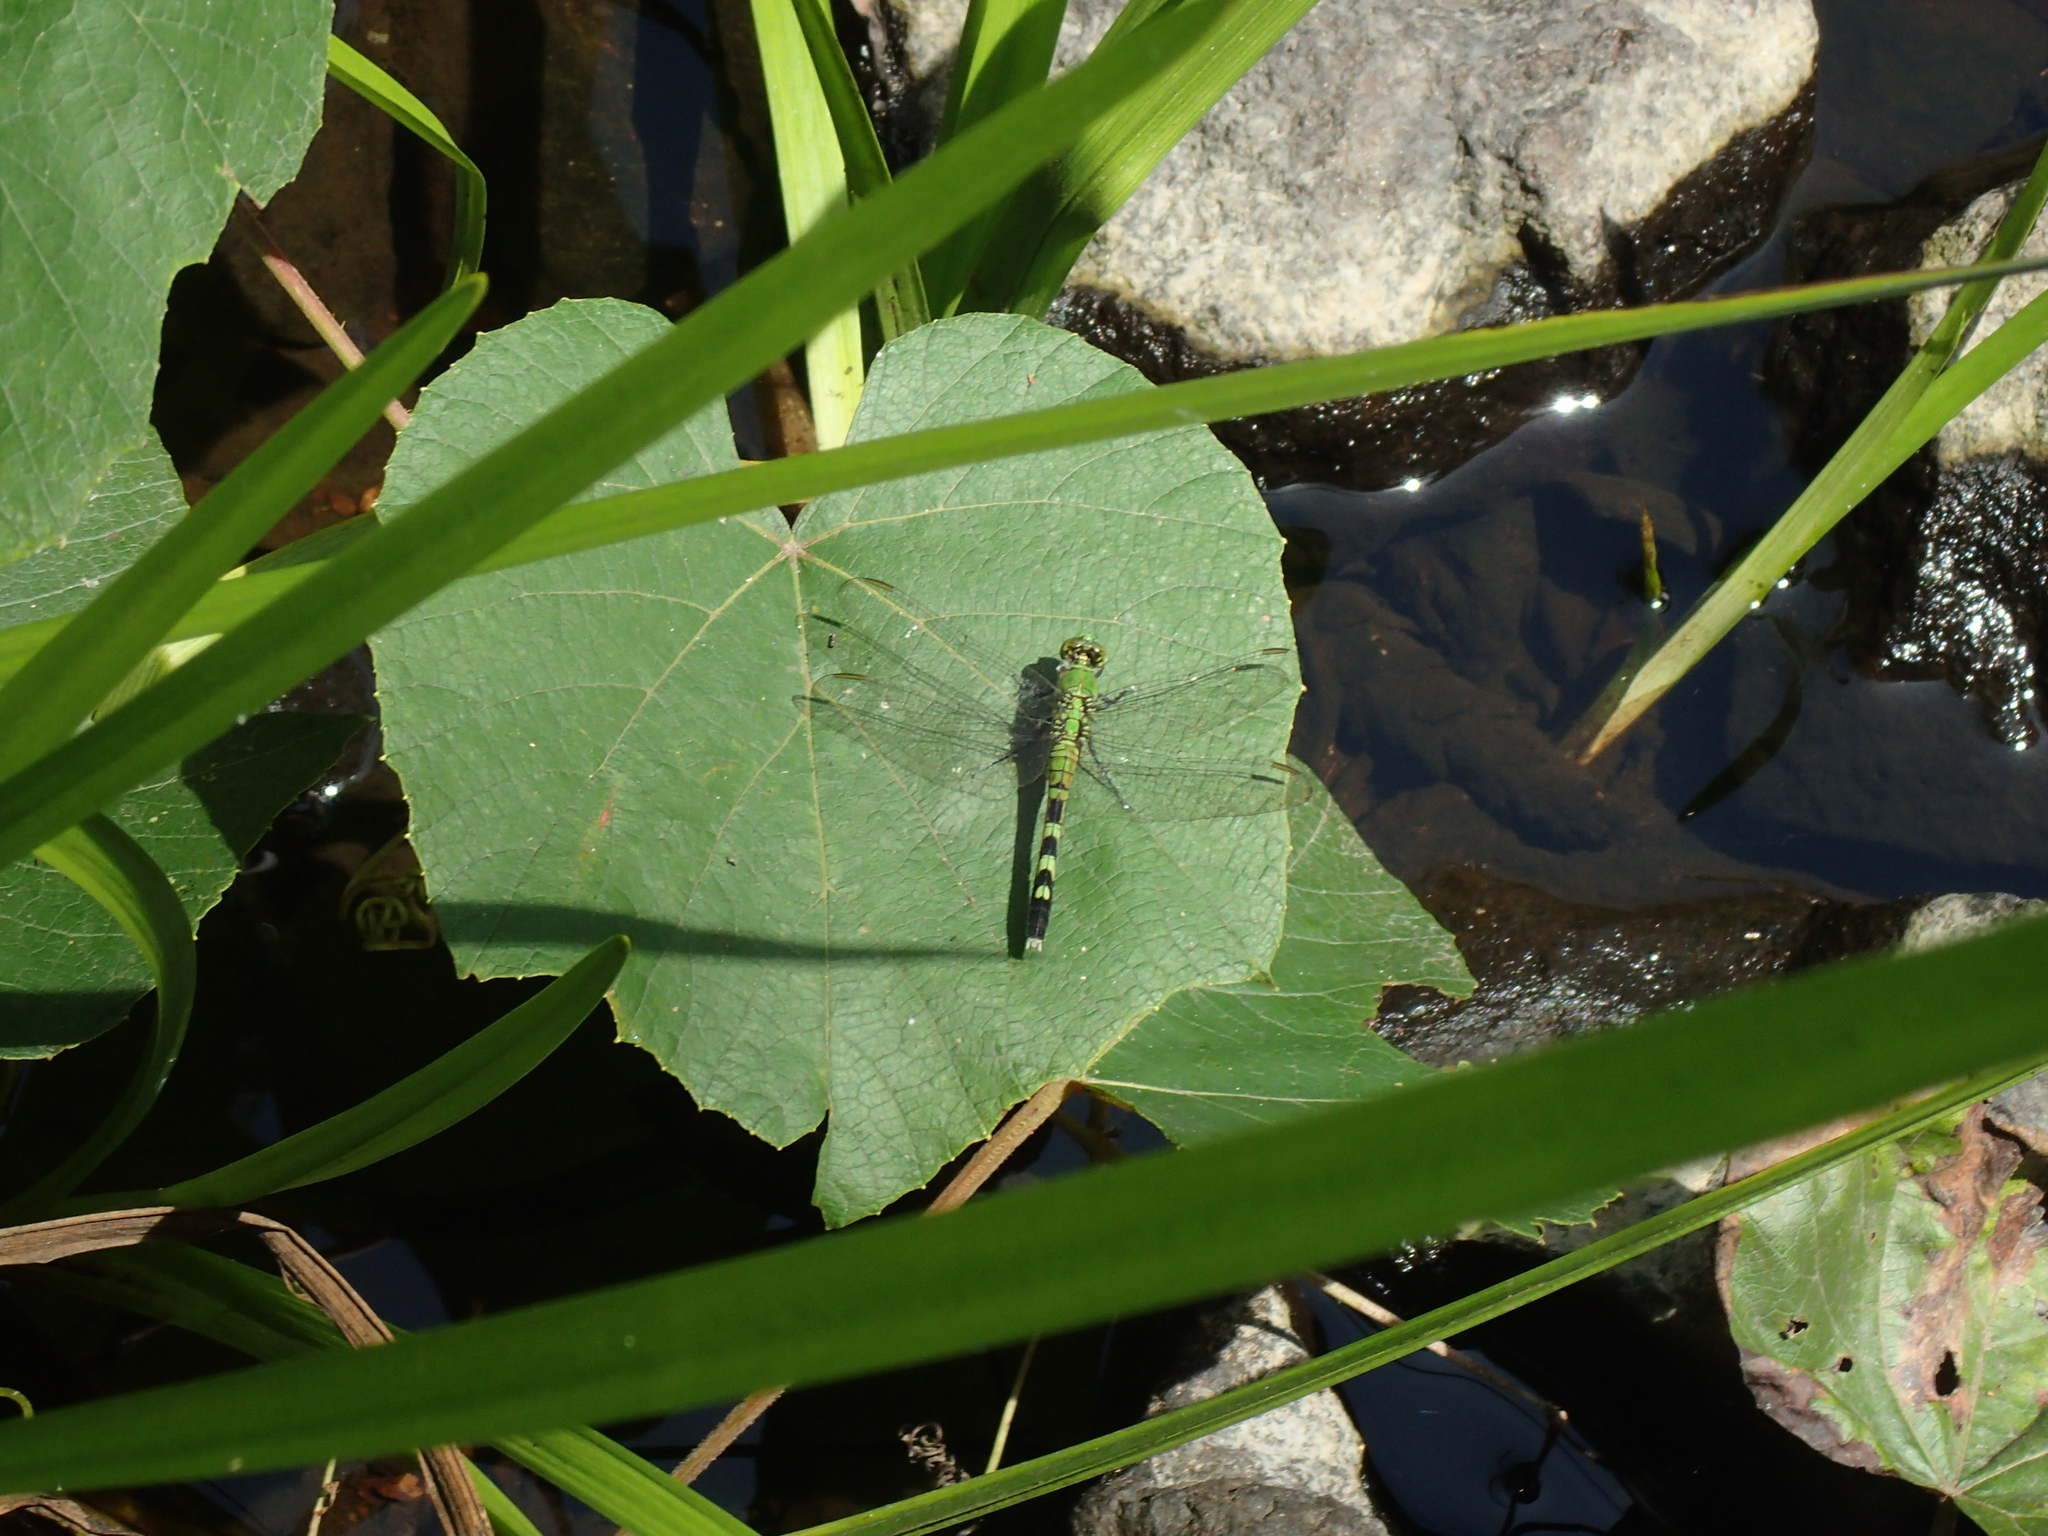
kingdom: Animalia
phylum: Arthropoda
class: Insecta
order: Odonata
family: Libellulidae
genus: Erythemis
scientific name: Erythemis simplicicollis
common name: Eastern pondhawk
